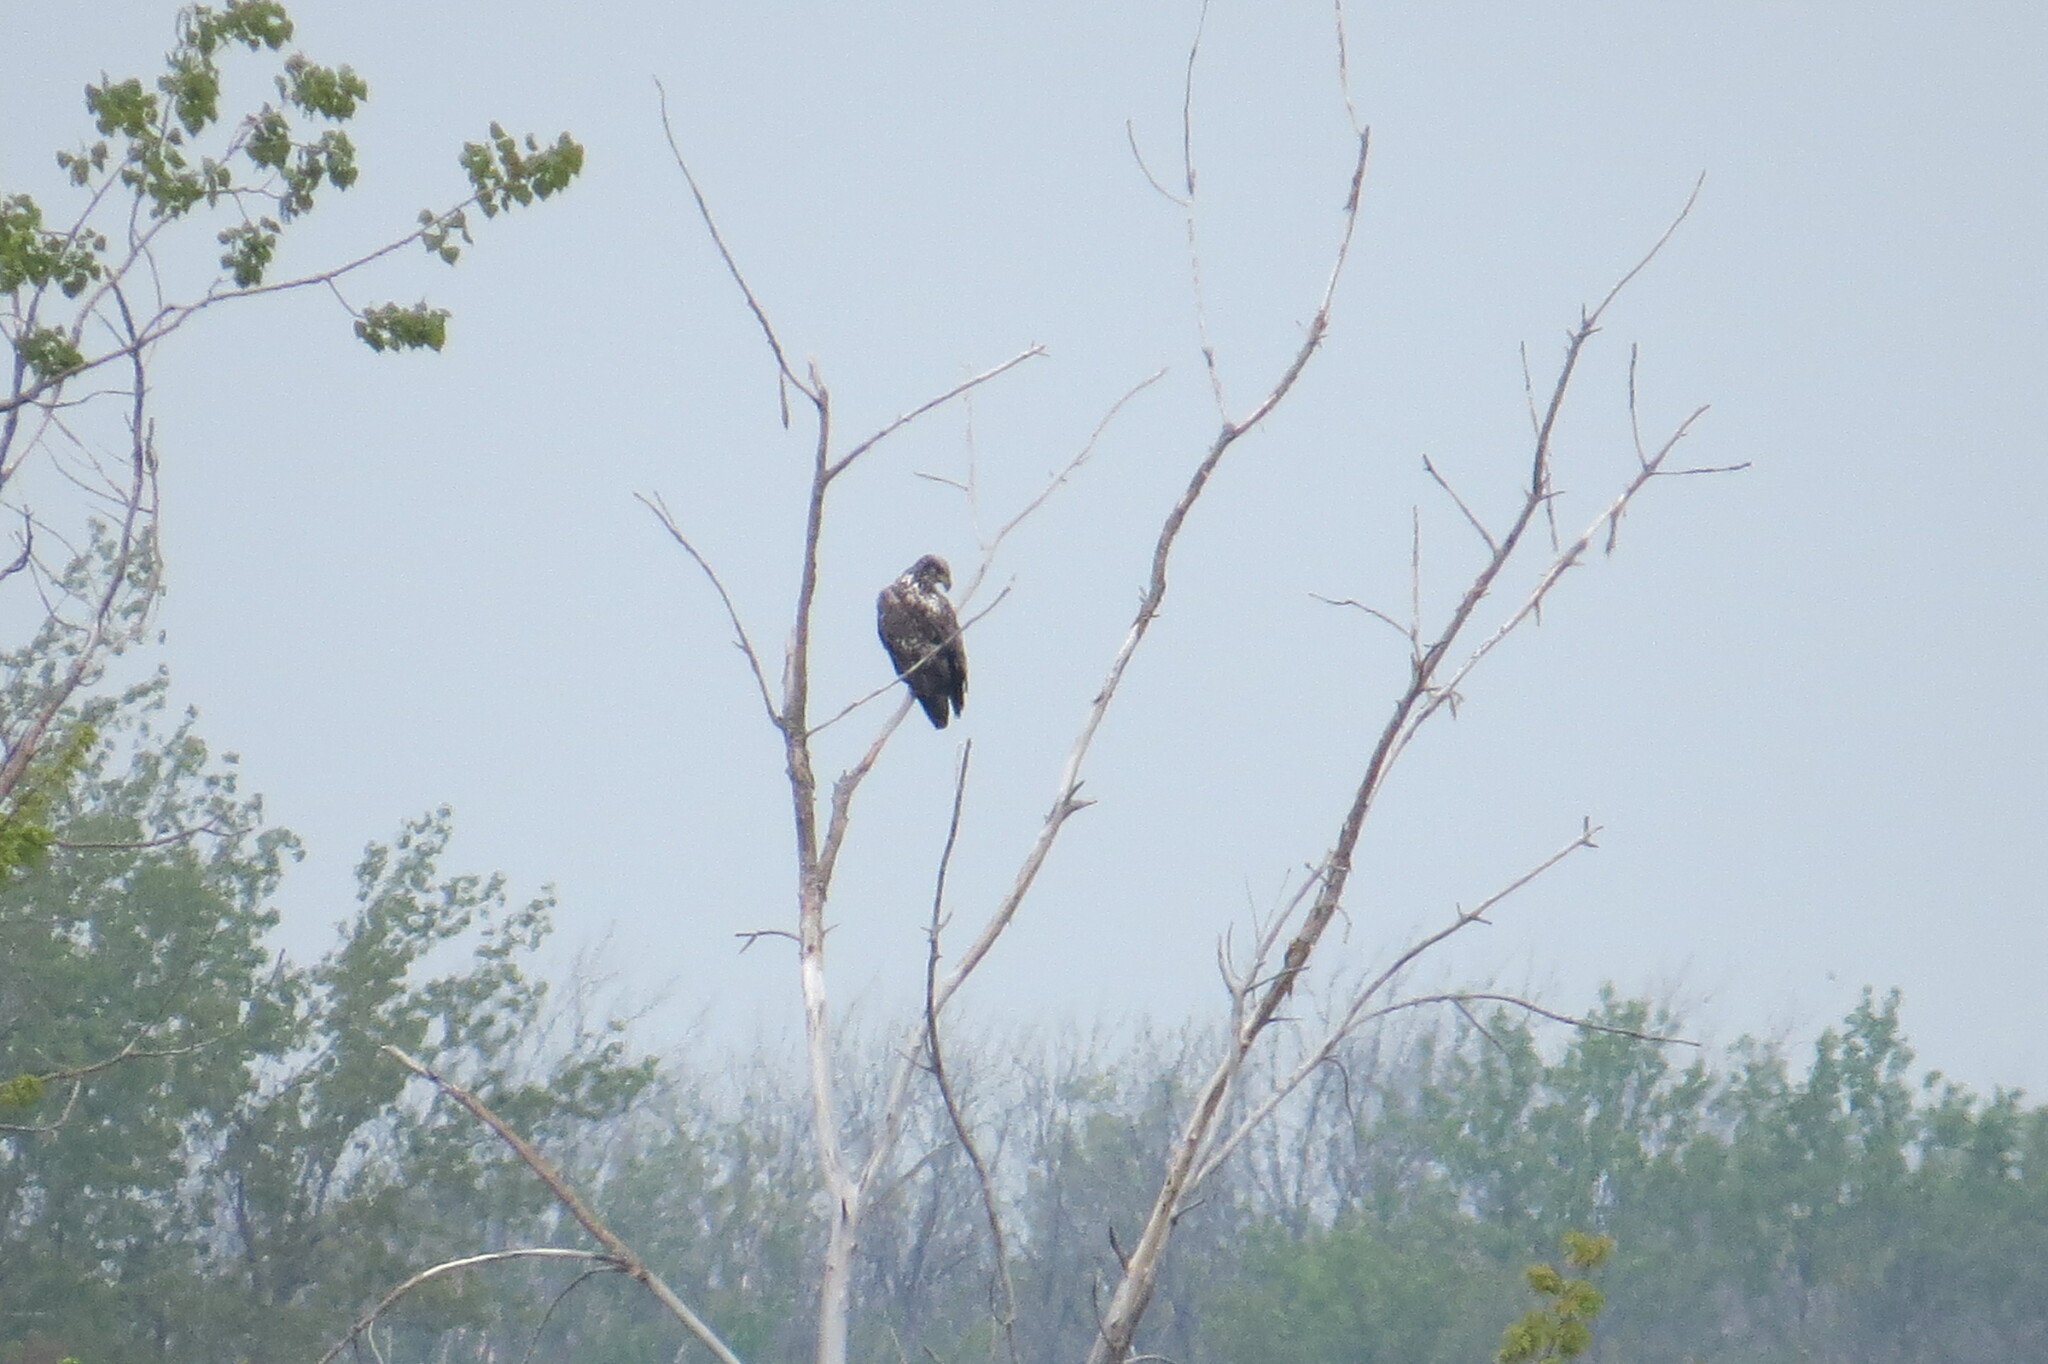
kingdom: Animalia
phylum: Chordata
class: Aves
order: Accipitriformes
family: Accipitridae
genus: Haliaeetus
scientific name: Haliaeetus leucocephalus
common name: Bald eagle
